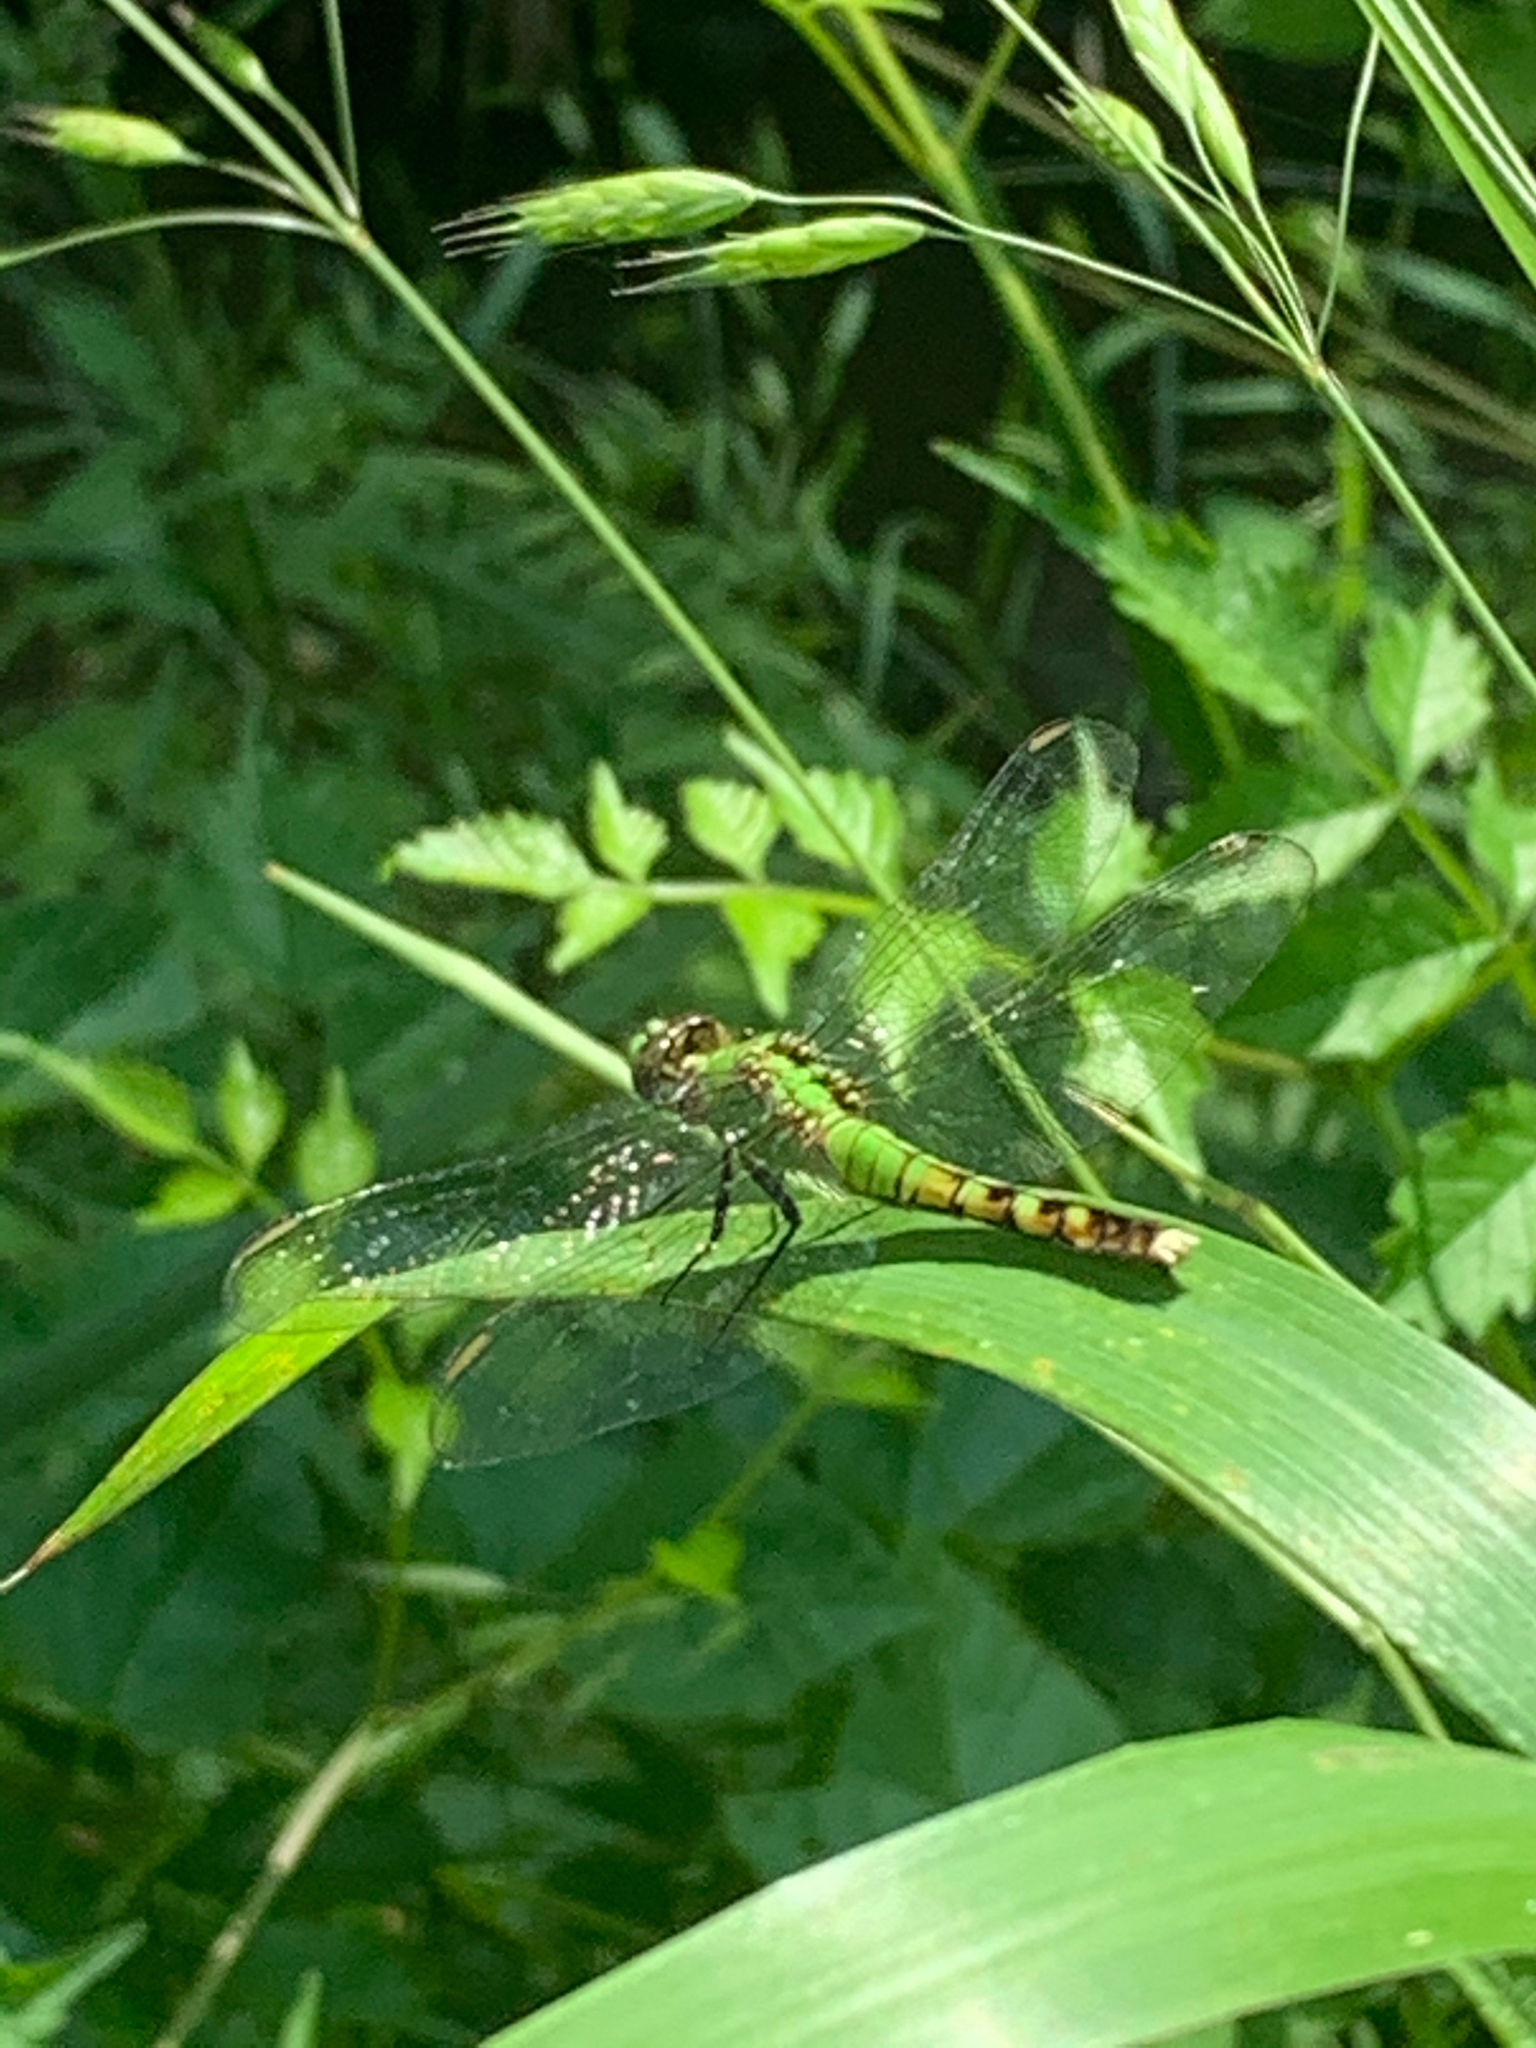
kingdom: Animalia
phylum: Arthropoda
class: Insecta
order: Odonata
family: Libellulidae
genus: Erythemis
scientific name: Erythemis simplicicollis
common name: Eastern pondhawk
